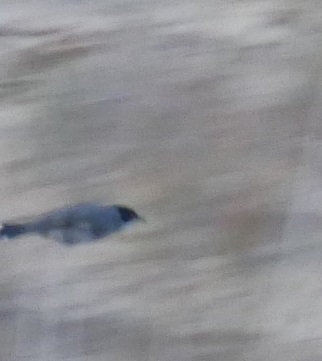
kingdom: Animalia
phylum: Chordata
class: Aves
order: Passeriformes
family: Sylviidae
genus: Curruca
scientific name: Curruca melanocephala
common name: Sardinian warbler
